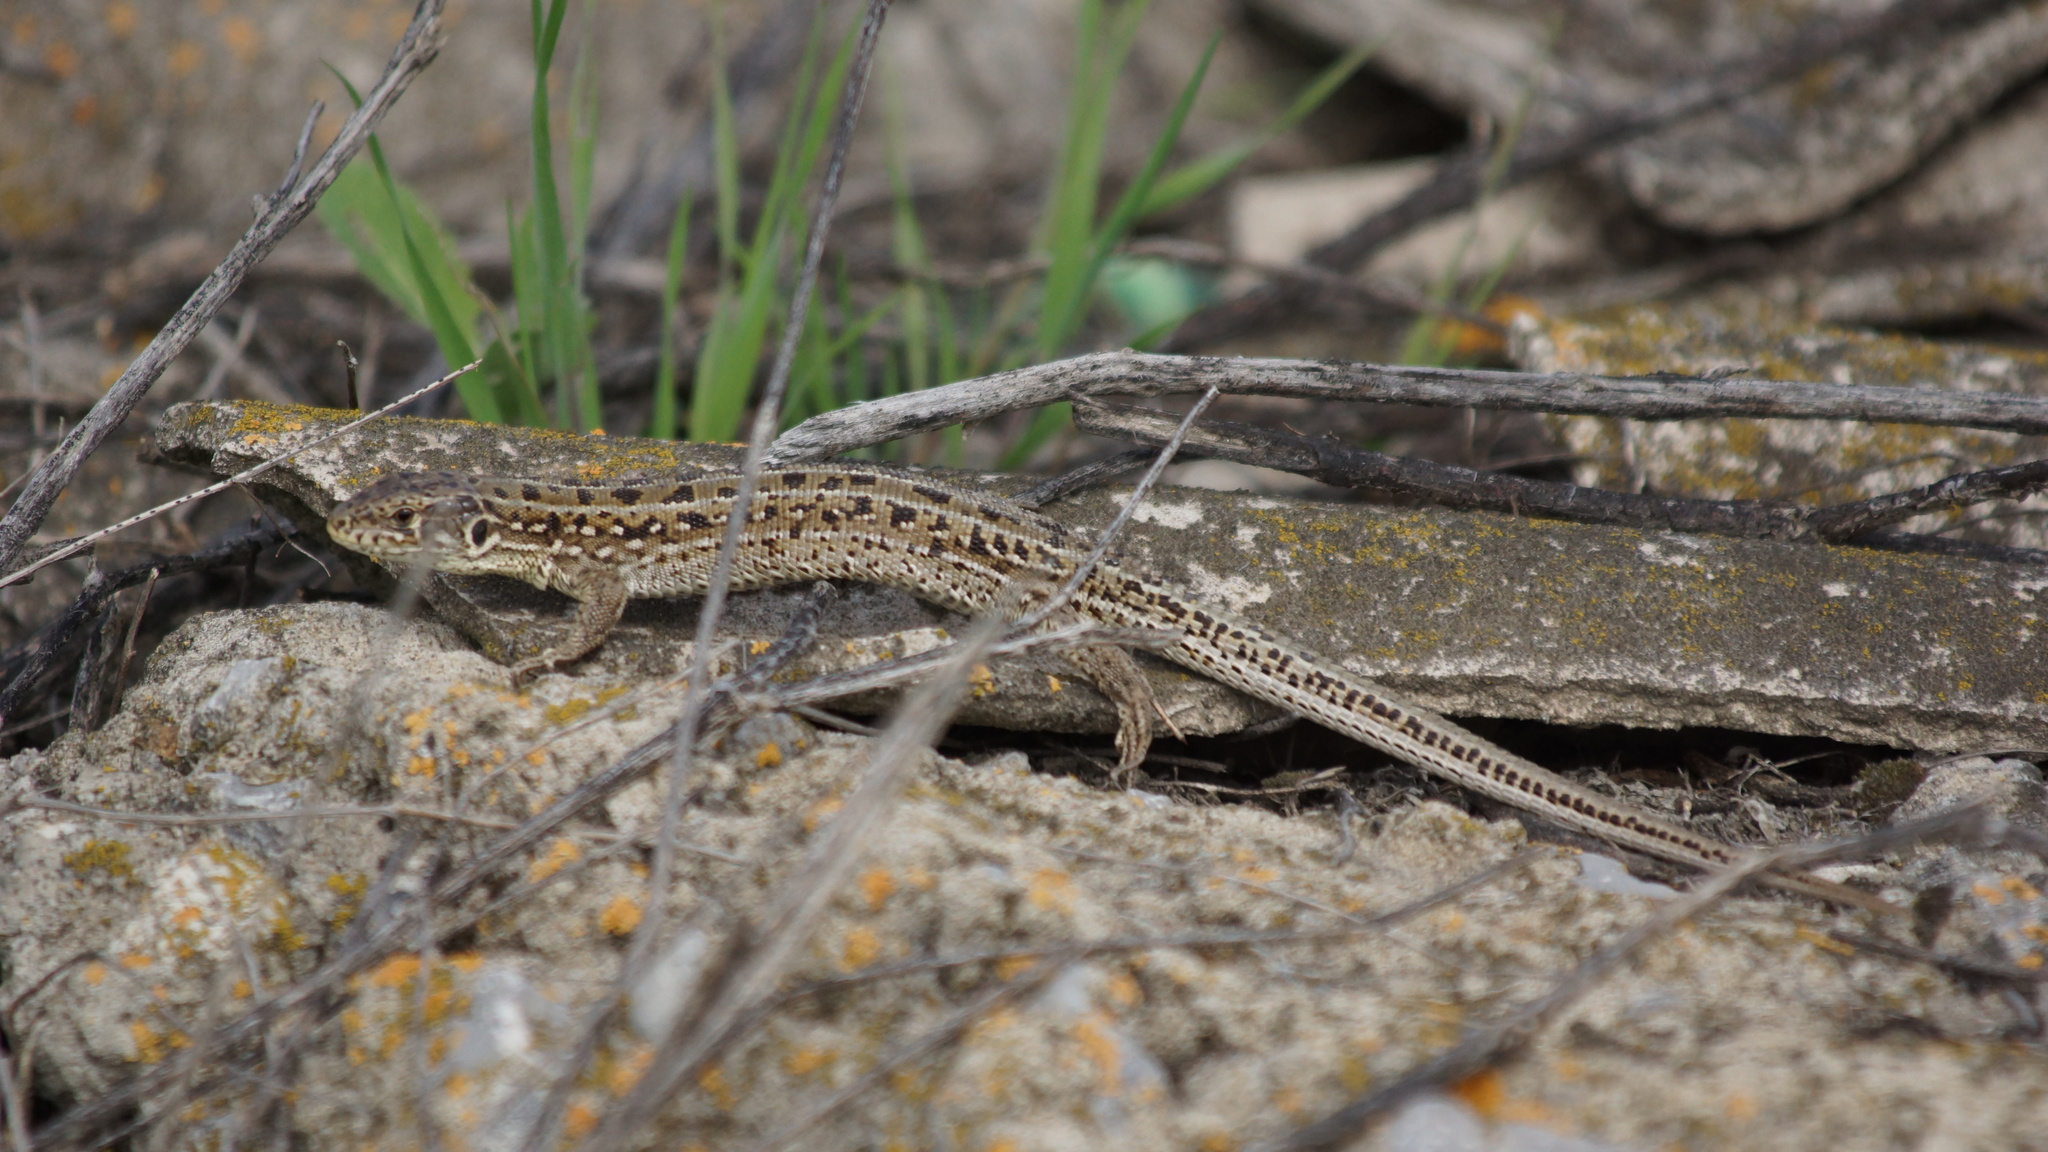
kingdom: Animalia
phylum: Chordata
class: Squamata
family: Lacertidae
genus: Lacerta
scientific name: Lacerta agilis
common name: Sand lizard
